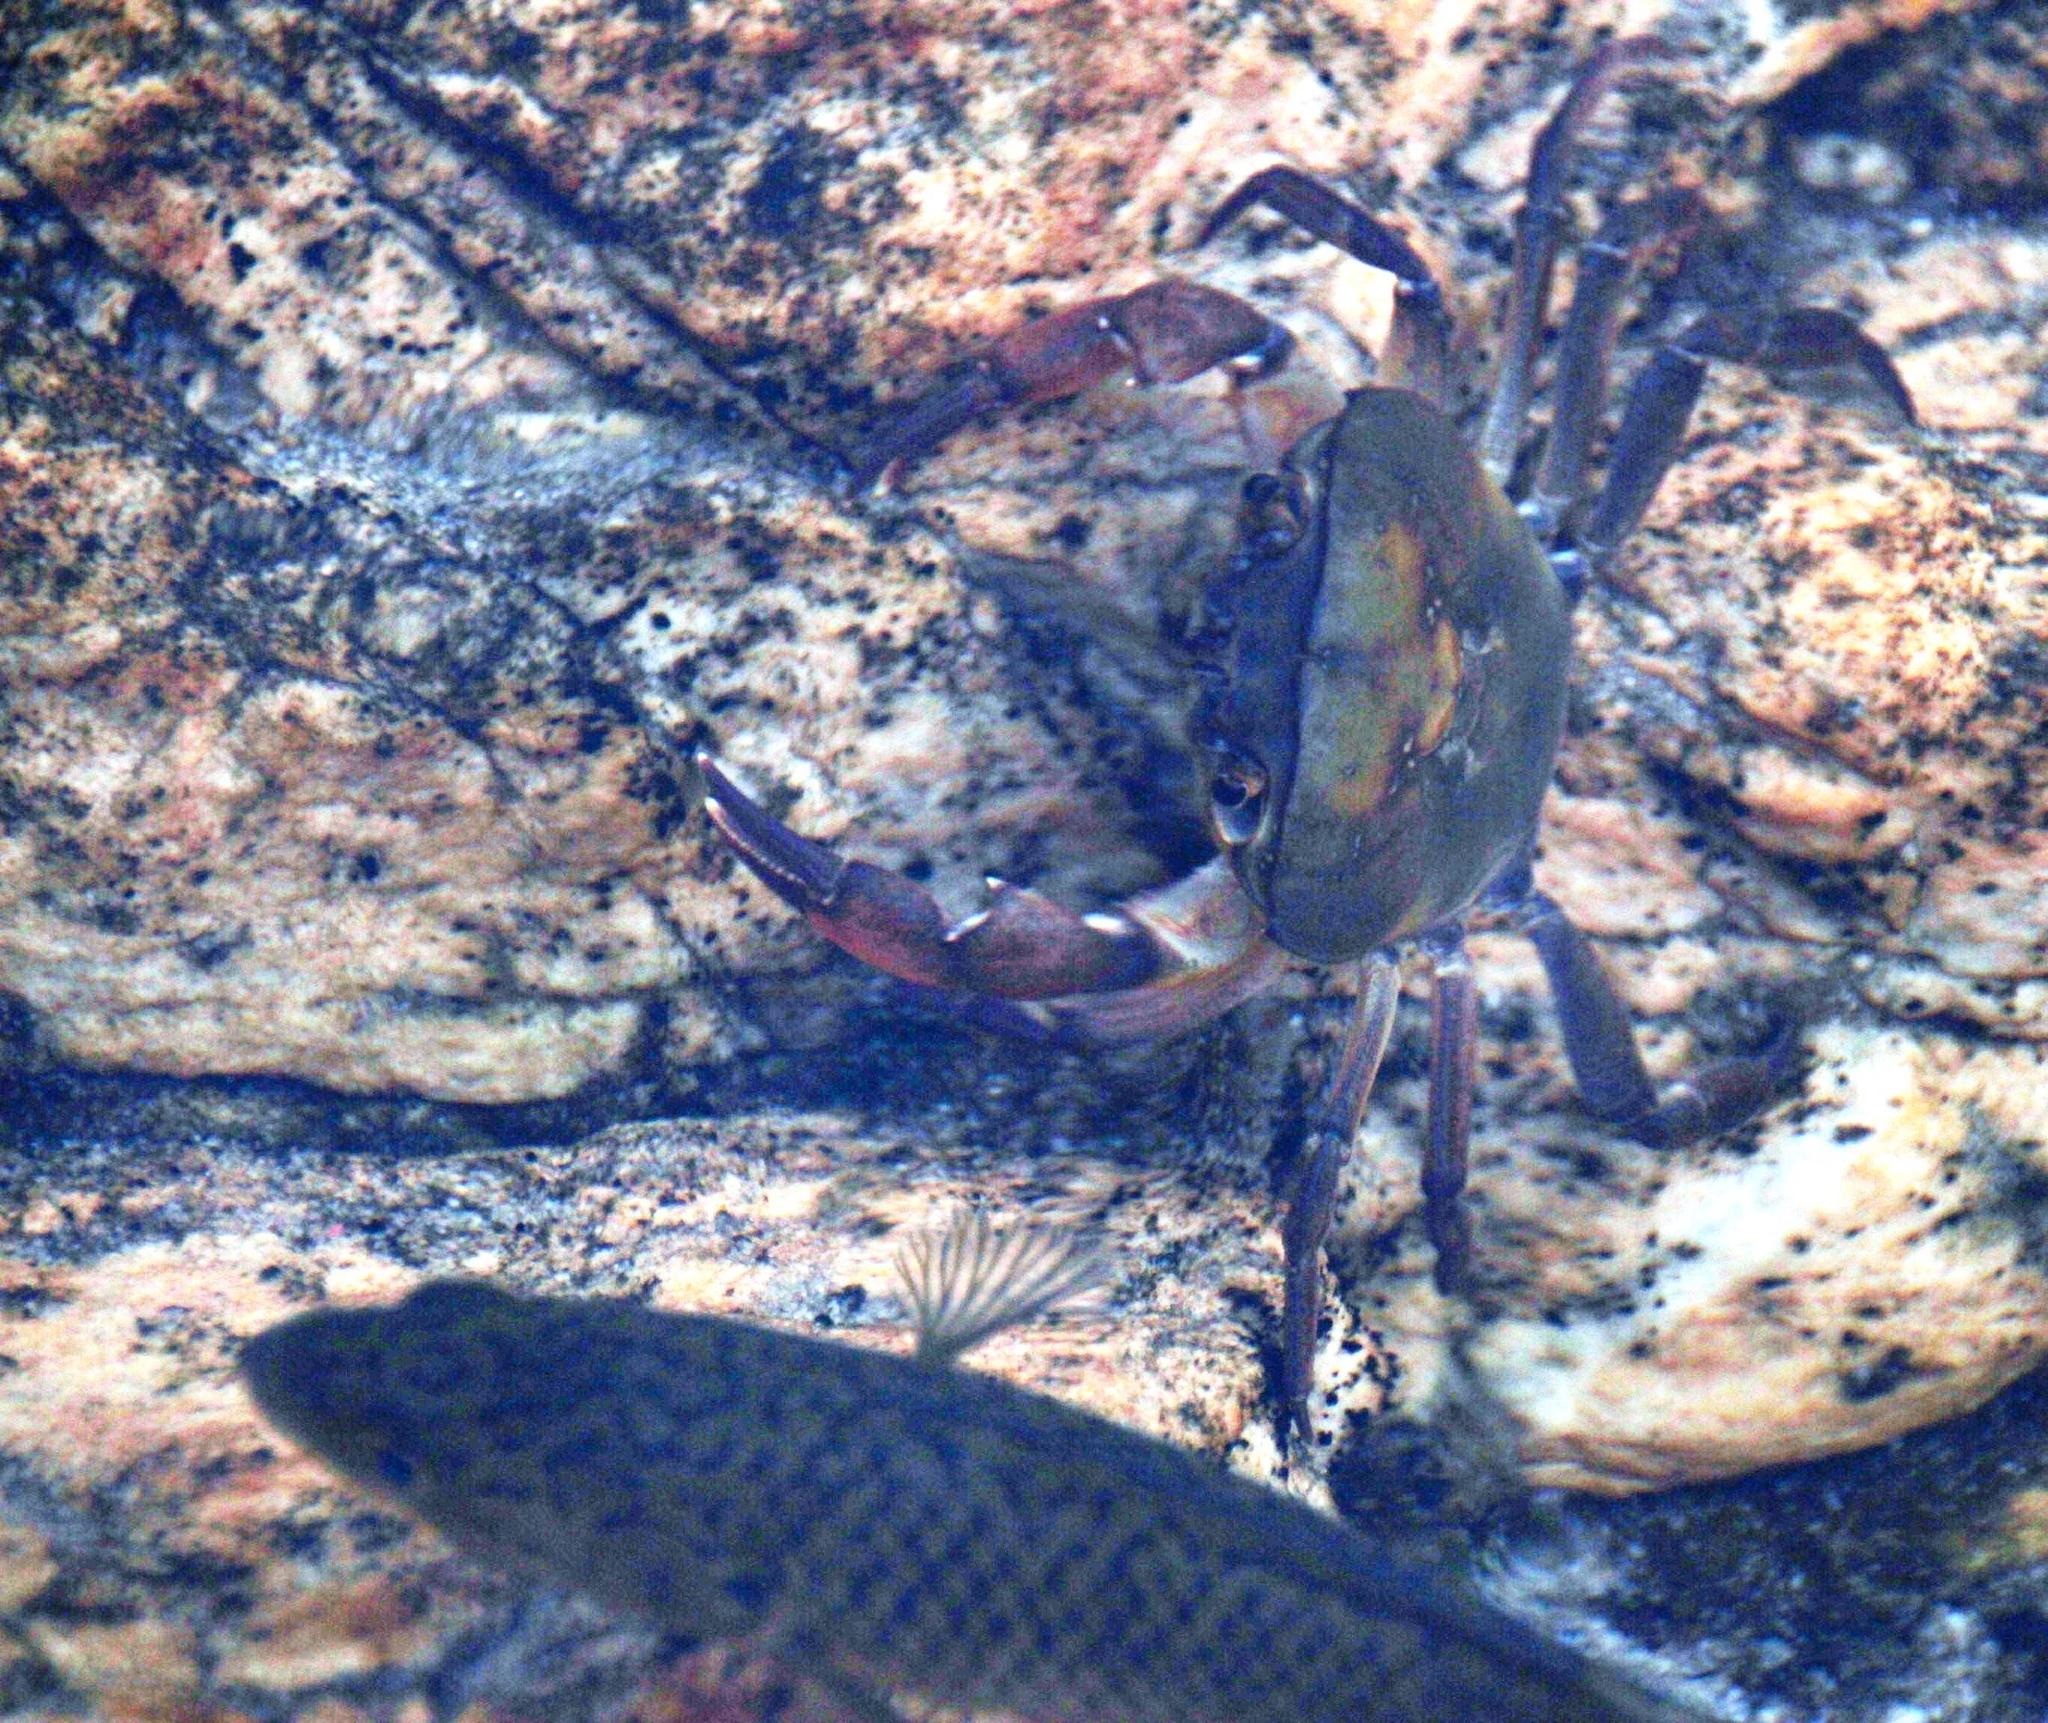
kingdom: Animalia
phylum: Arthropoda
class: Malacostraca
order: Decapoda
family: Potamonautidae
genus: Potamonautes
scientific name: Potamonautes parvispina
